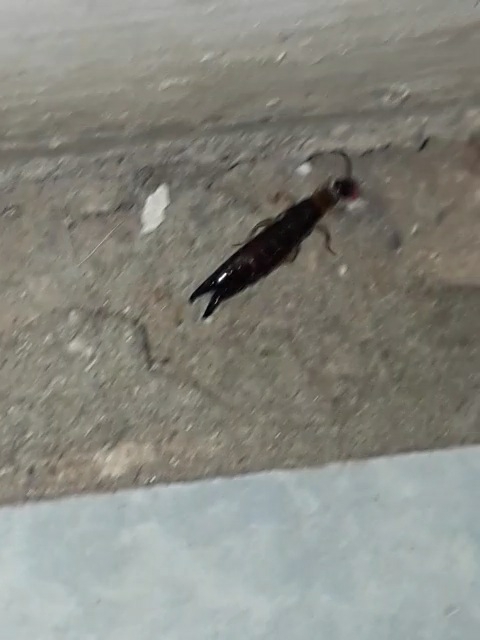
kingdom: Animalia
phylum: Arthropoda
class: Insecta
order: Dermaptera
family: Anisolabididae
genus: Euborellia
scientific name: Euborellia annulipes
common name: Ringlegged earwig
